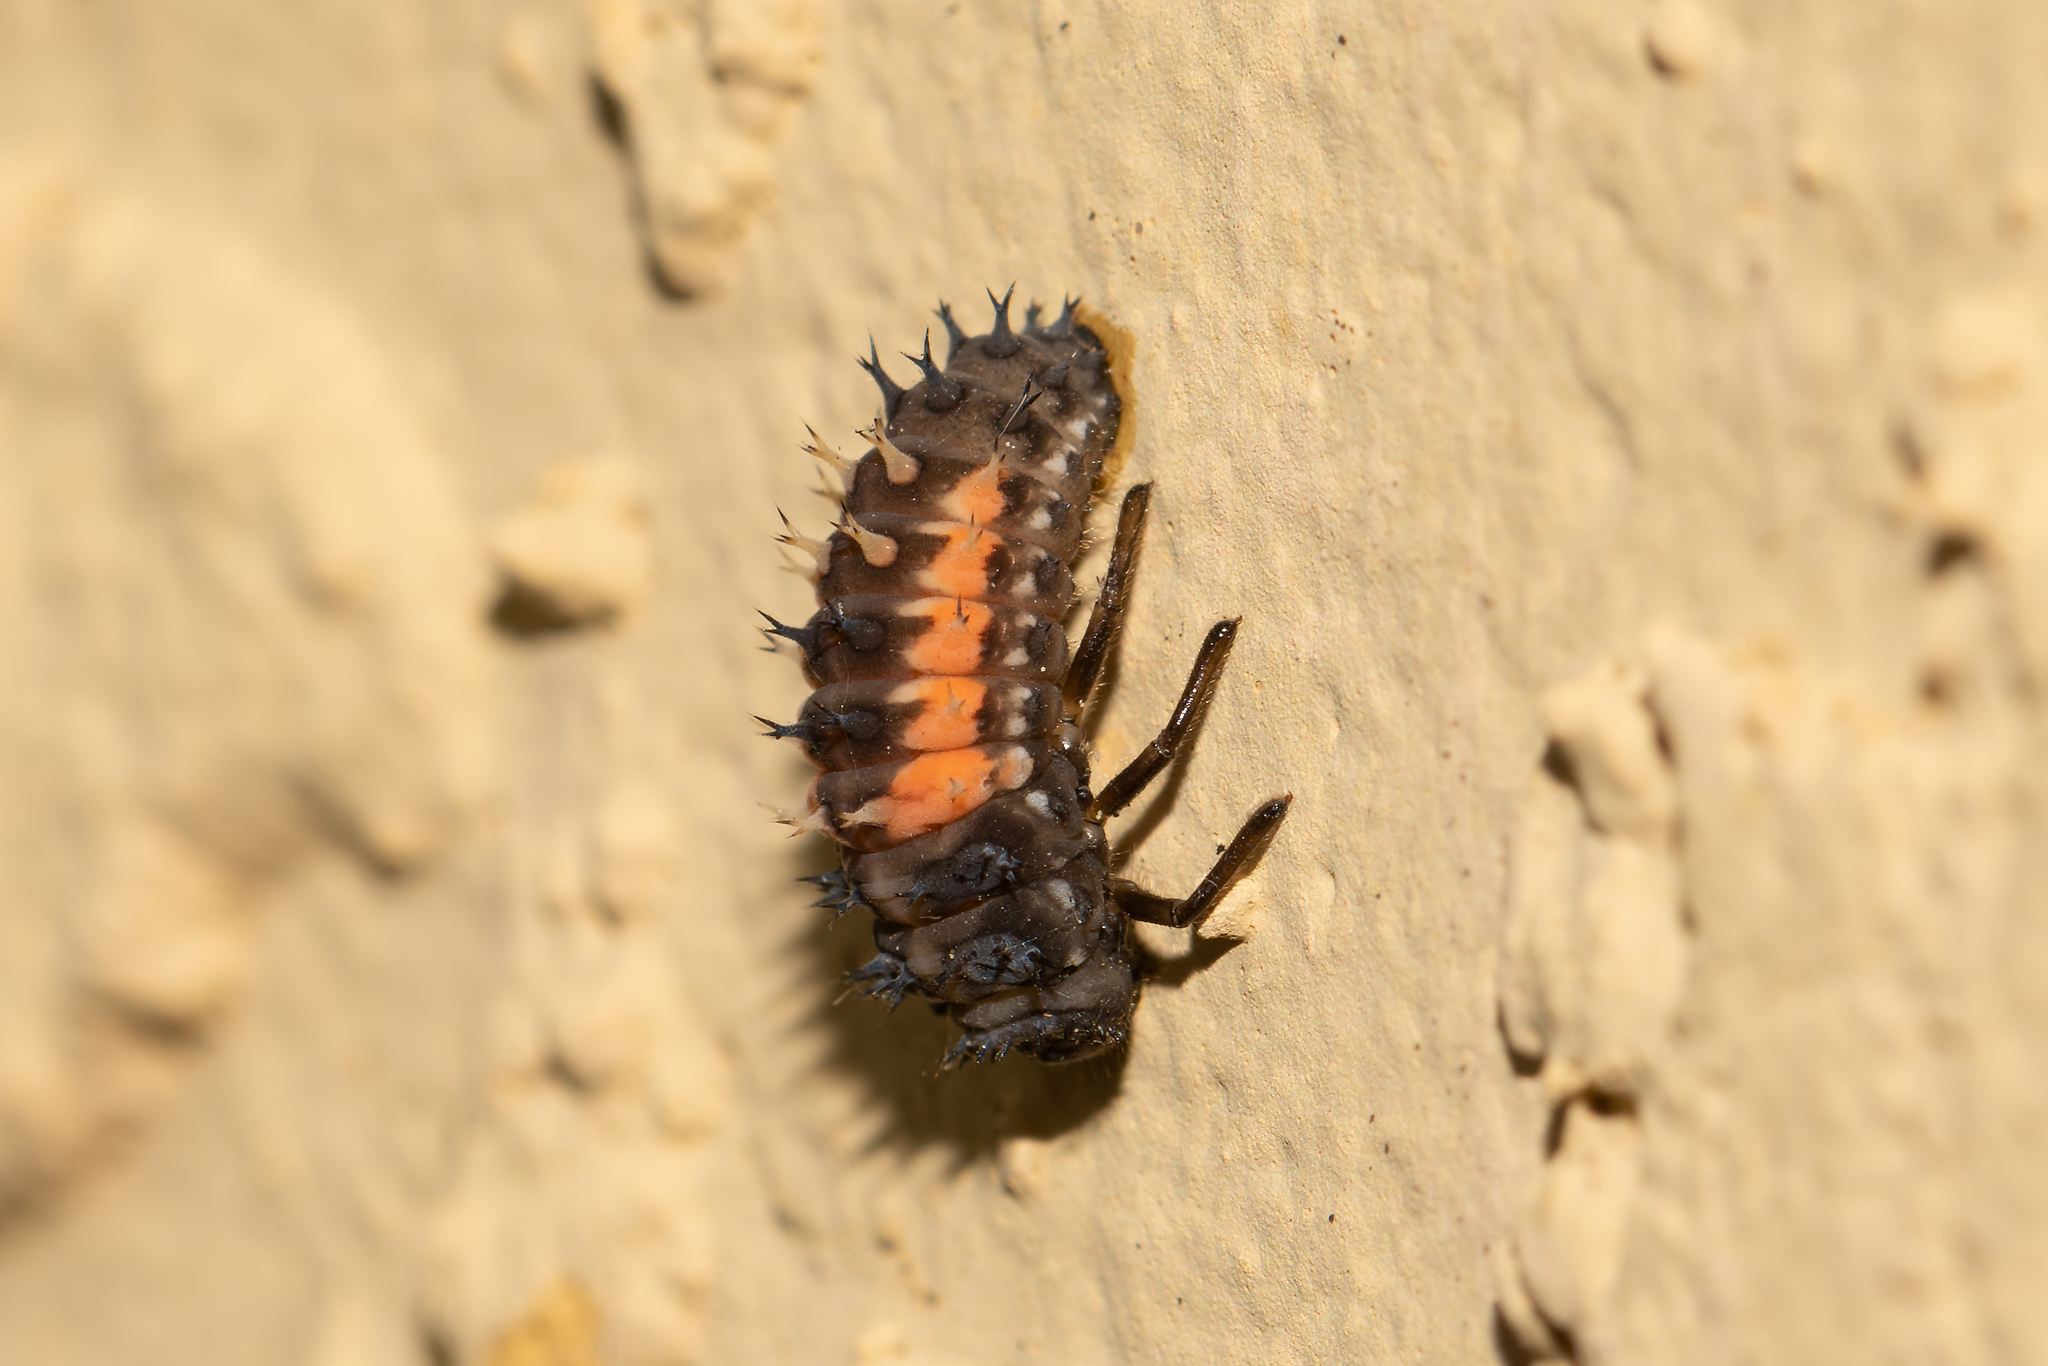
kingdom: Animalia
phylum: Arthropoda
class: Insecta
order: Coleoptera
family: Coccinellidae
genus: Harmonia
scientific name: Harmonia axyridis
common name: Harlequin ladybird
